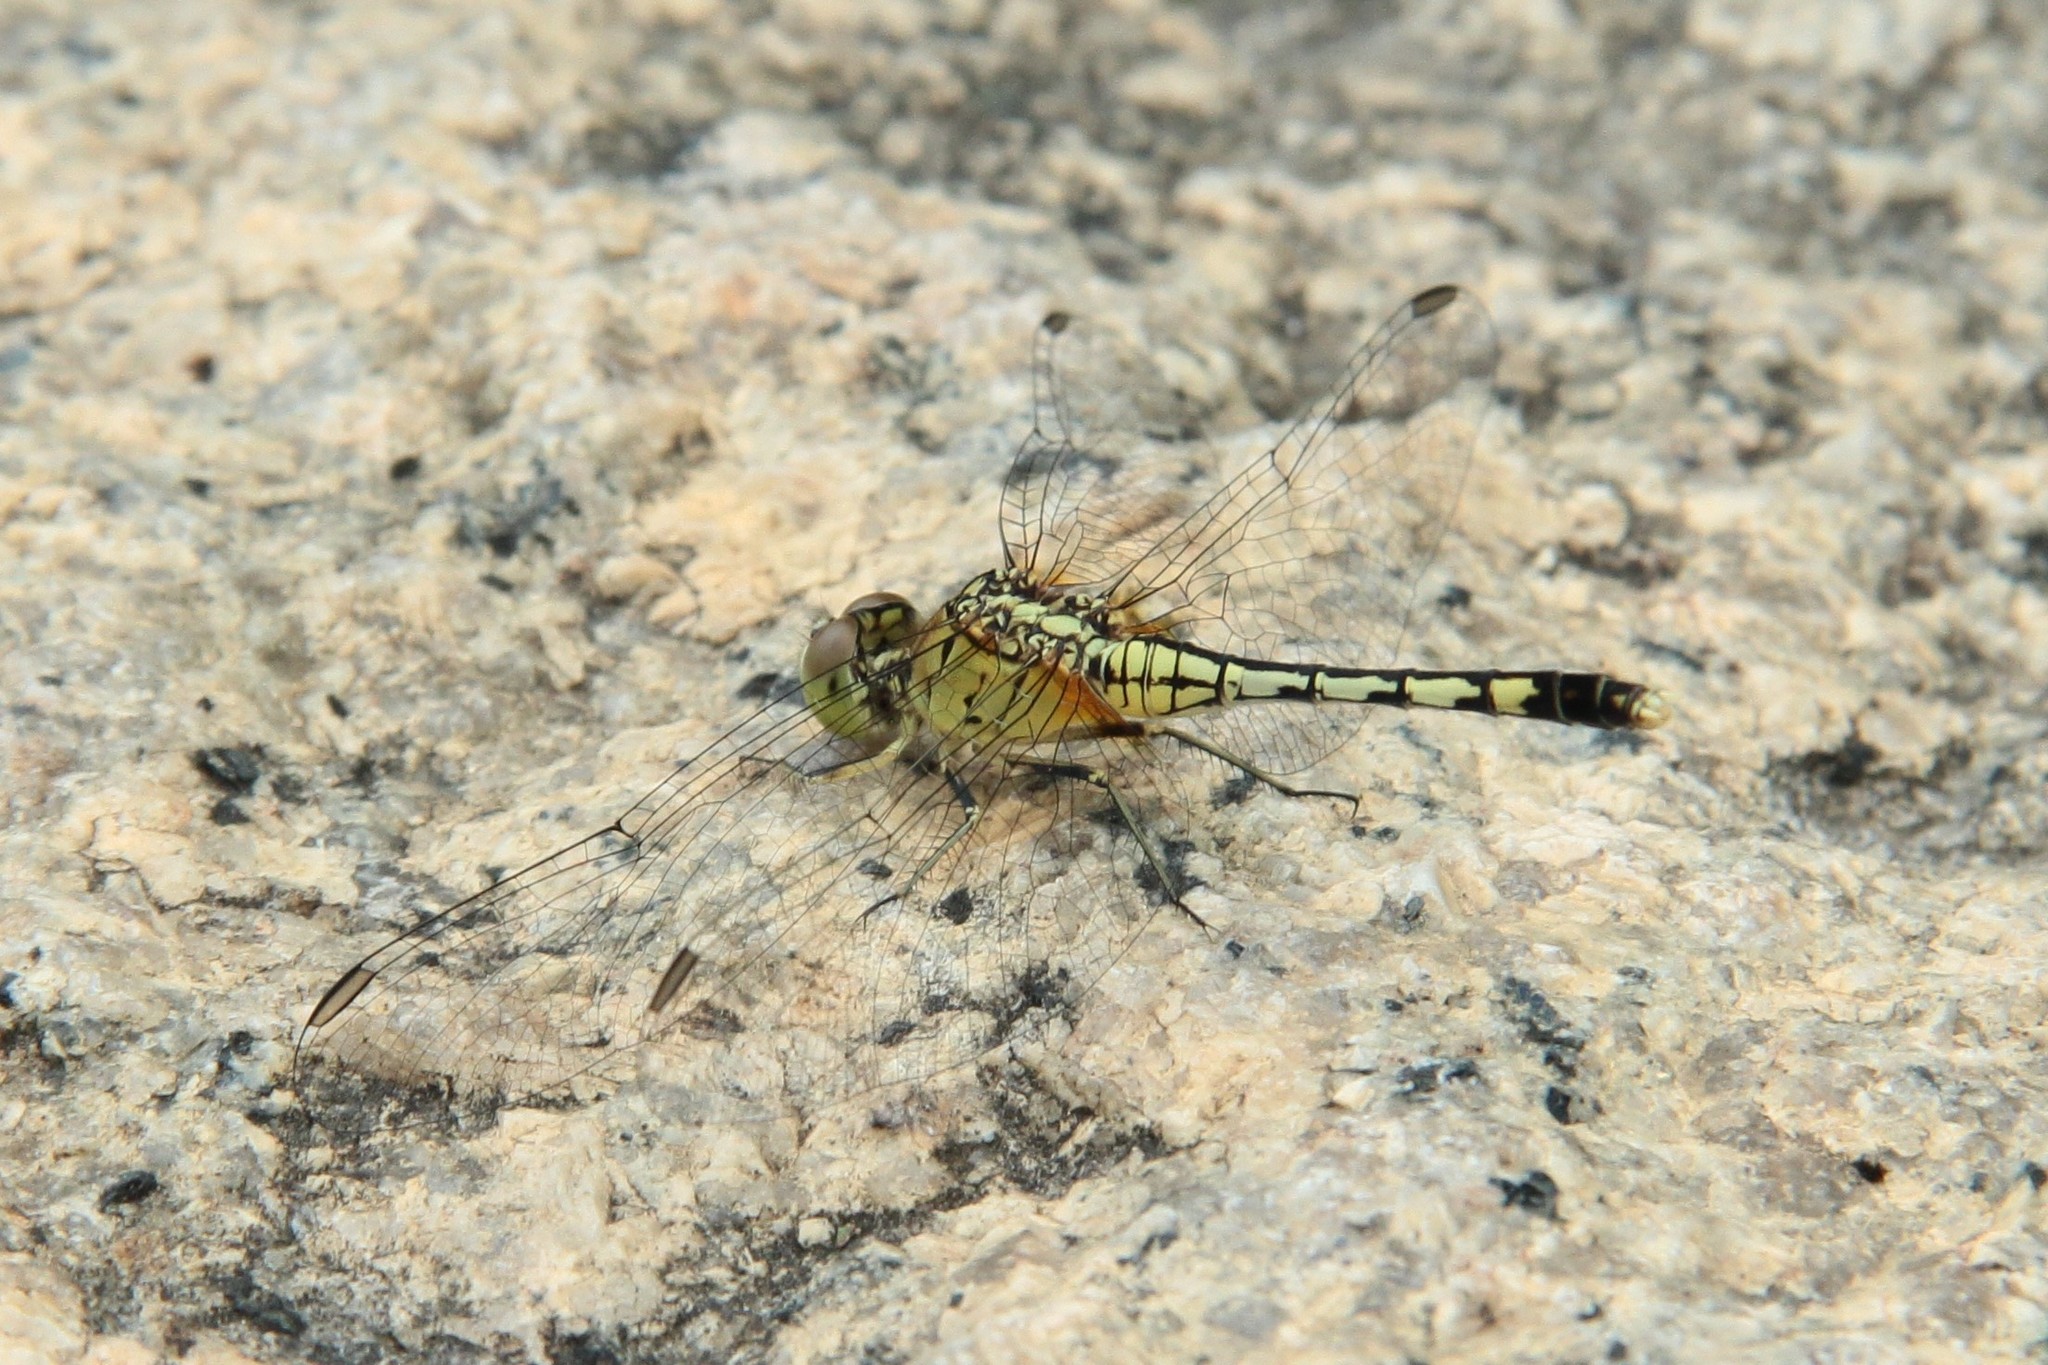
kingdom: Animalia
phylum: Arthropoda
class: Insecta
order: Odonata
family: Libellulidae
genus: Diplacodes
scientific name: Diplacodes trivialis
